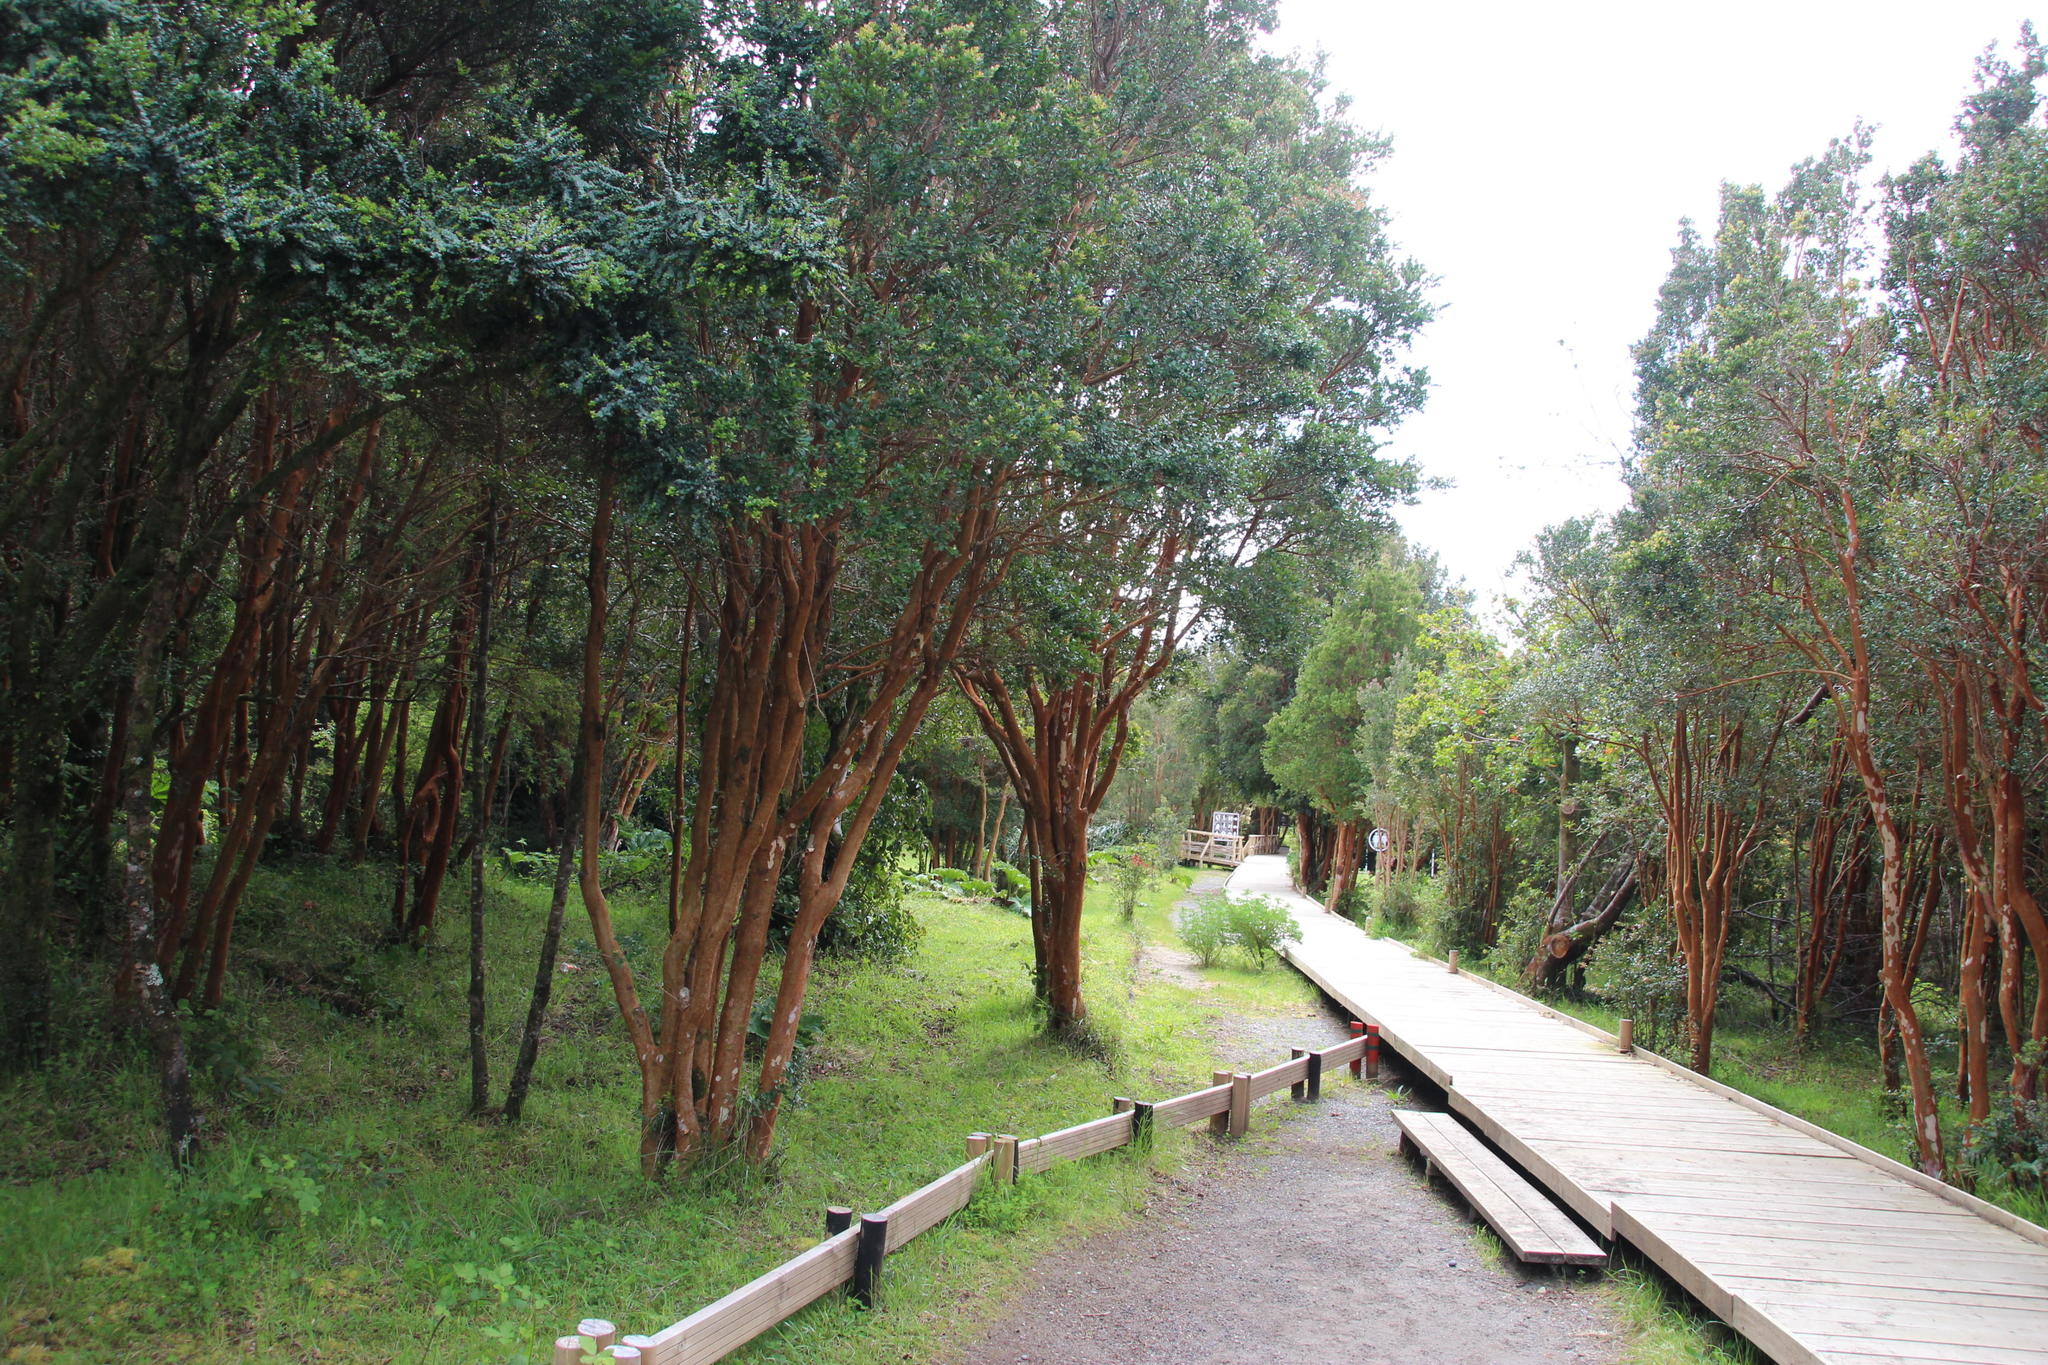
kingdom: Plantae
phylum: Tracheophyta
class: Magnoliopsida
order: Myrtales
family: Myrtaceae
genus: Luma
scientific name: Luma apiculata
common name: Chilean myrtle
